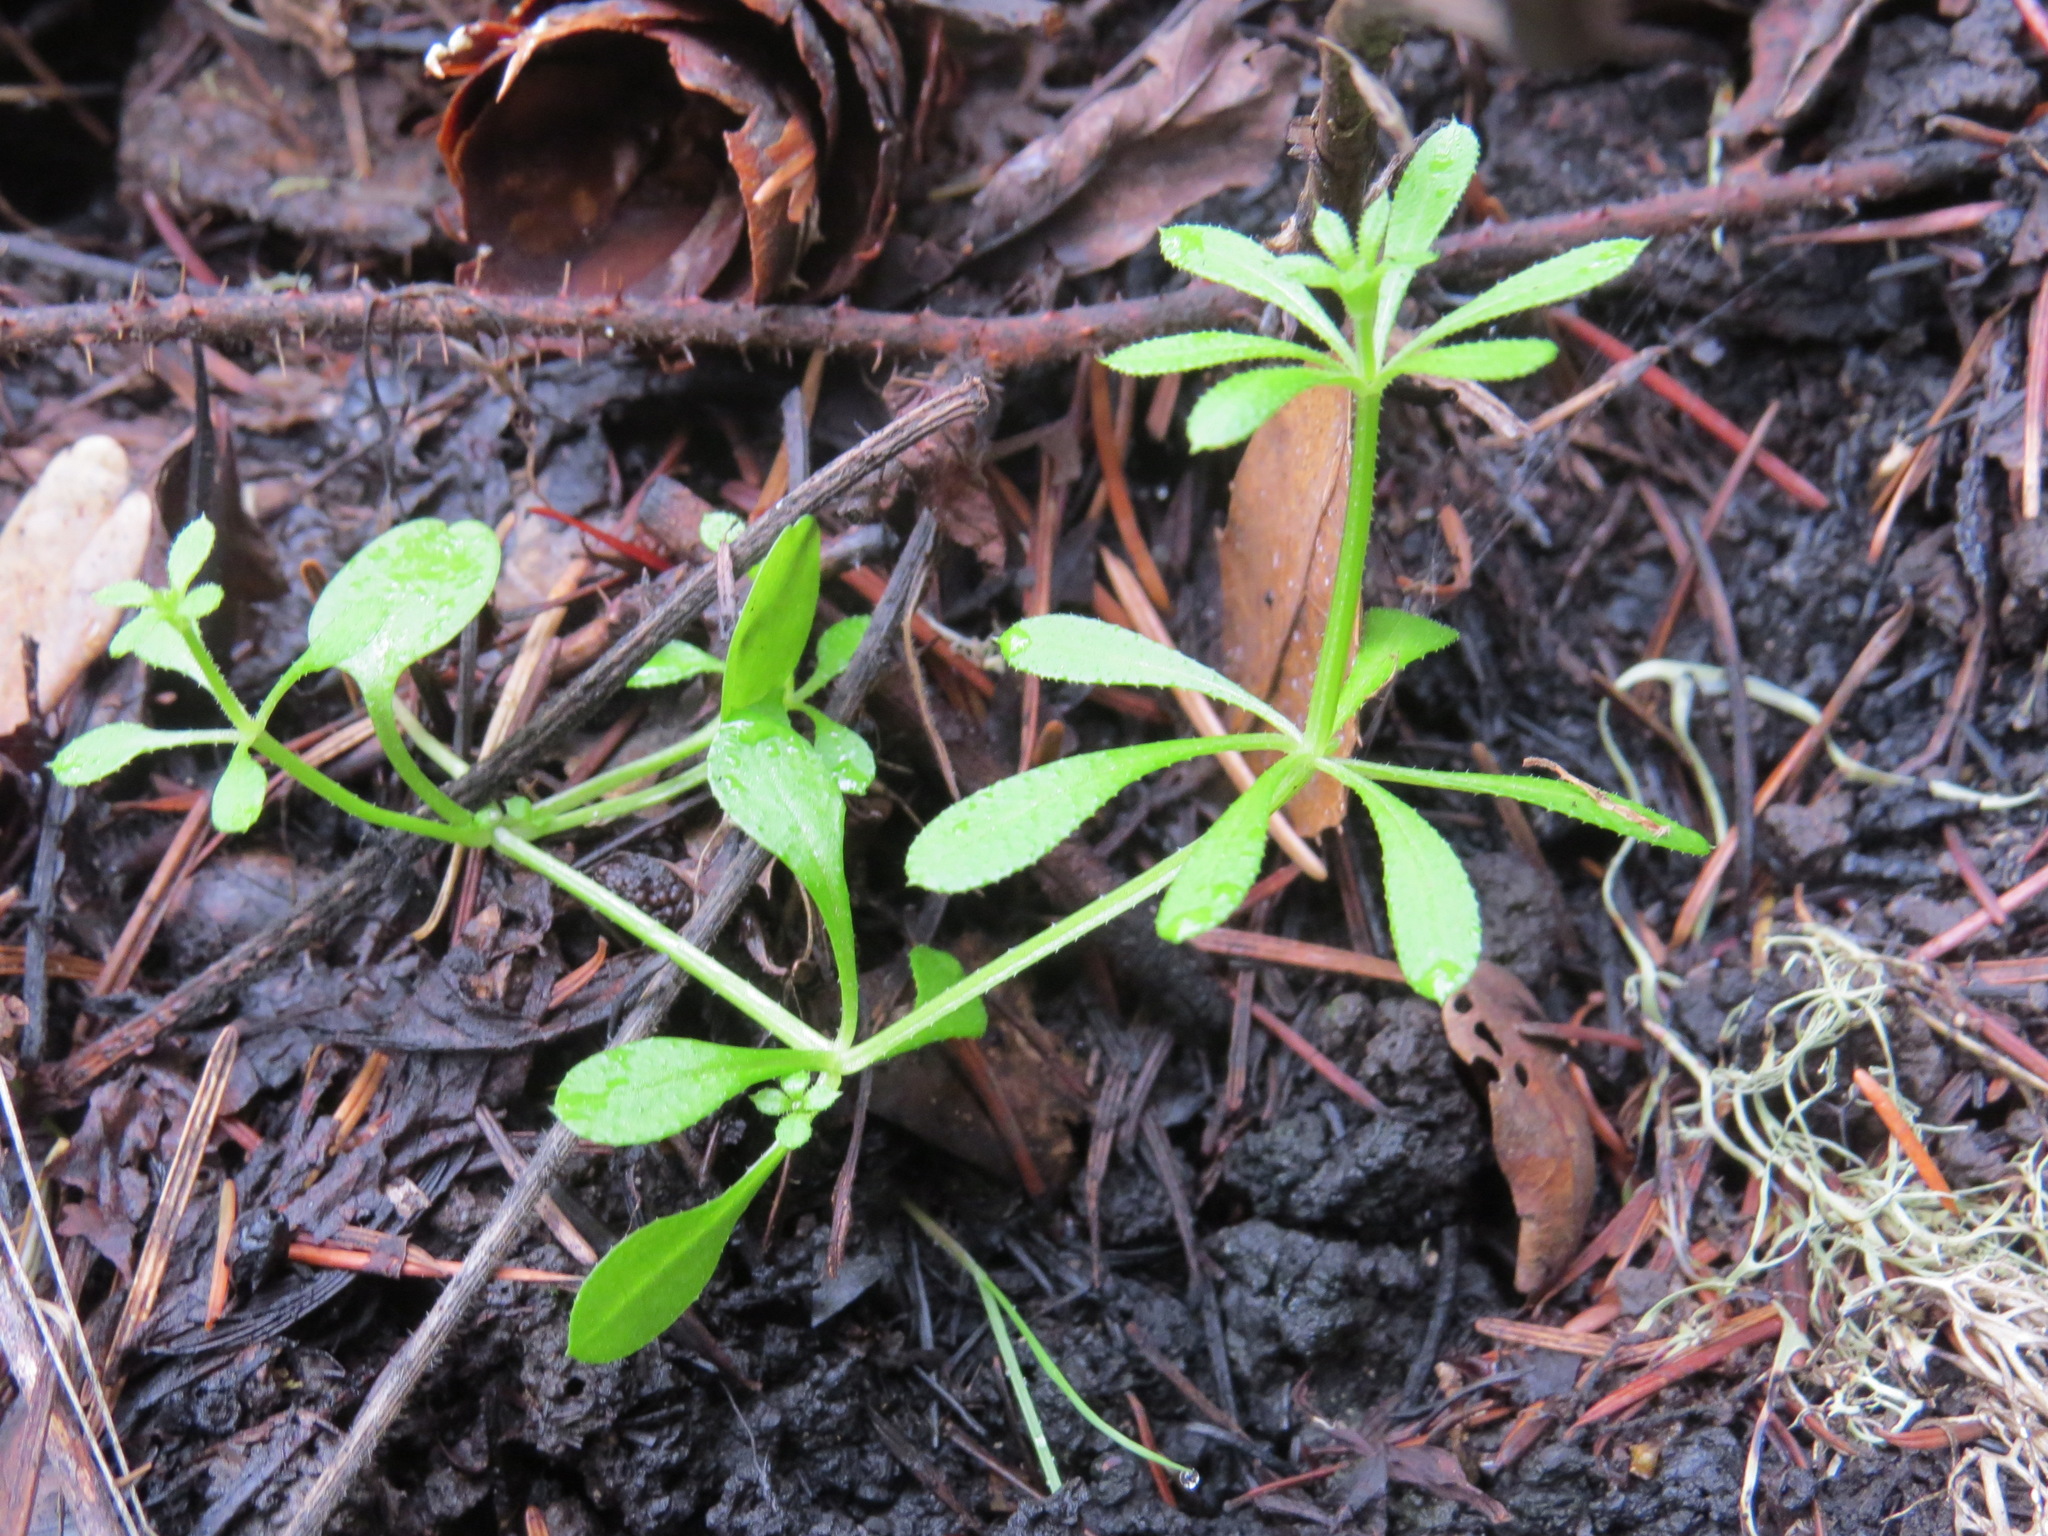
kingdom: Plantae
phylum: Tracheophyta
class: Magnoliopsida
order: Gentianales
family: Rubiaceae
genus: Galium
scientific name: Galium aparine
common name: Cleavers
